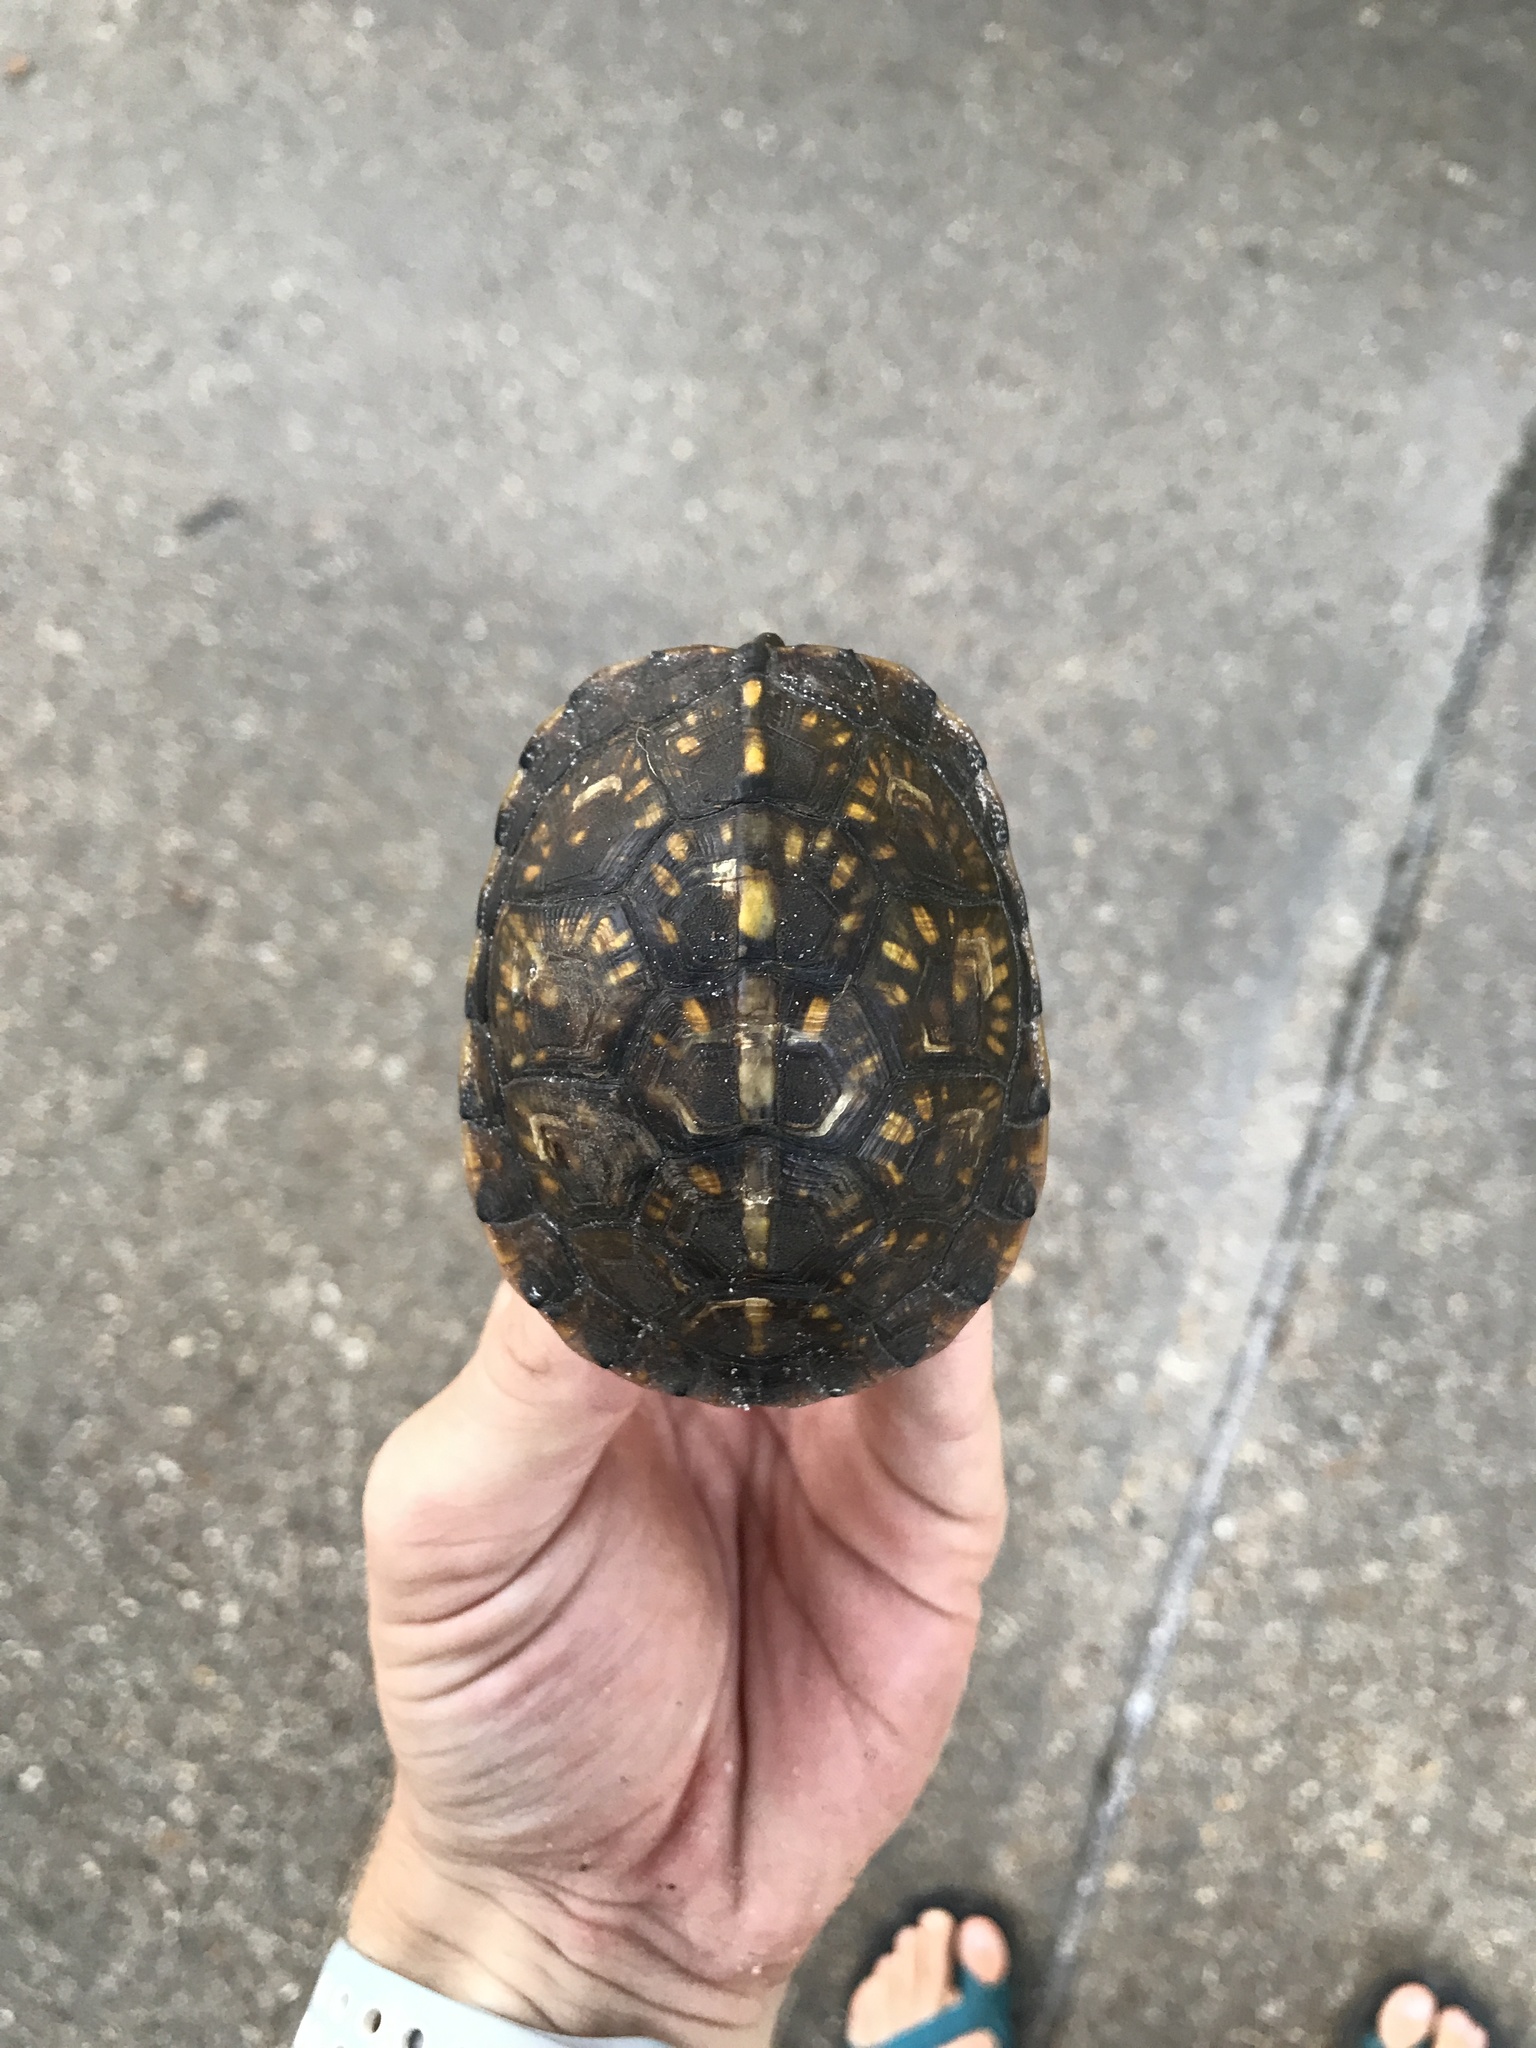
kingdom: Animalia
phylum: Chordata
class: Testudines
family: Emydidae
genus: Terrapene
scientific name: Terrapene carolina
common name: Common box turtle
